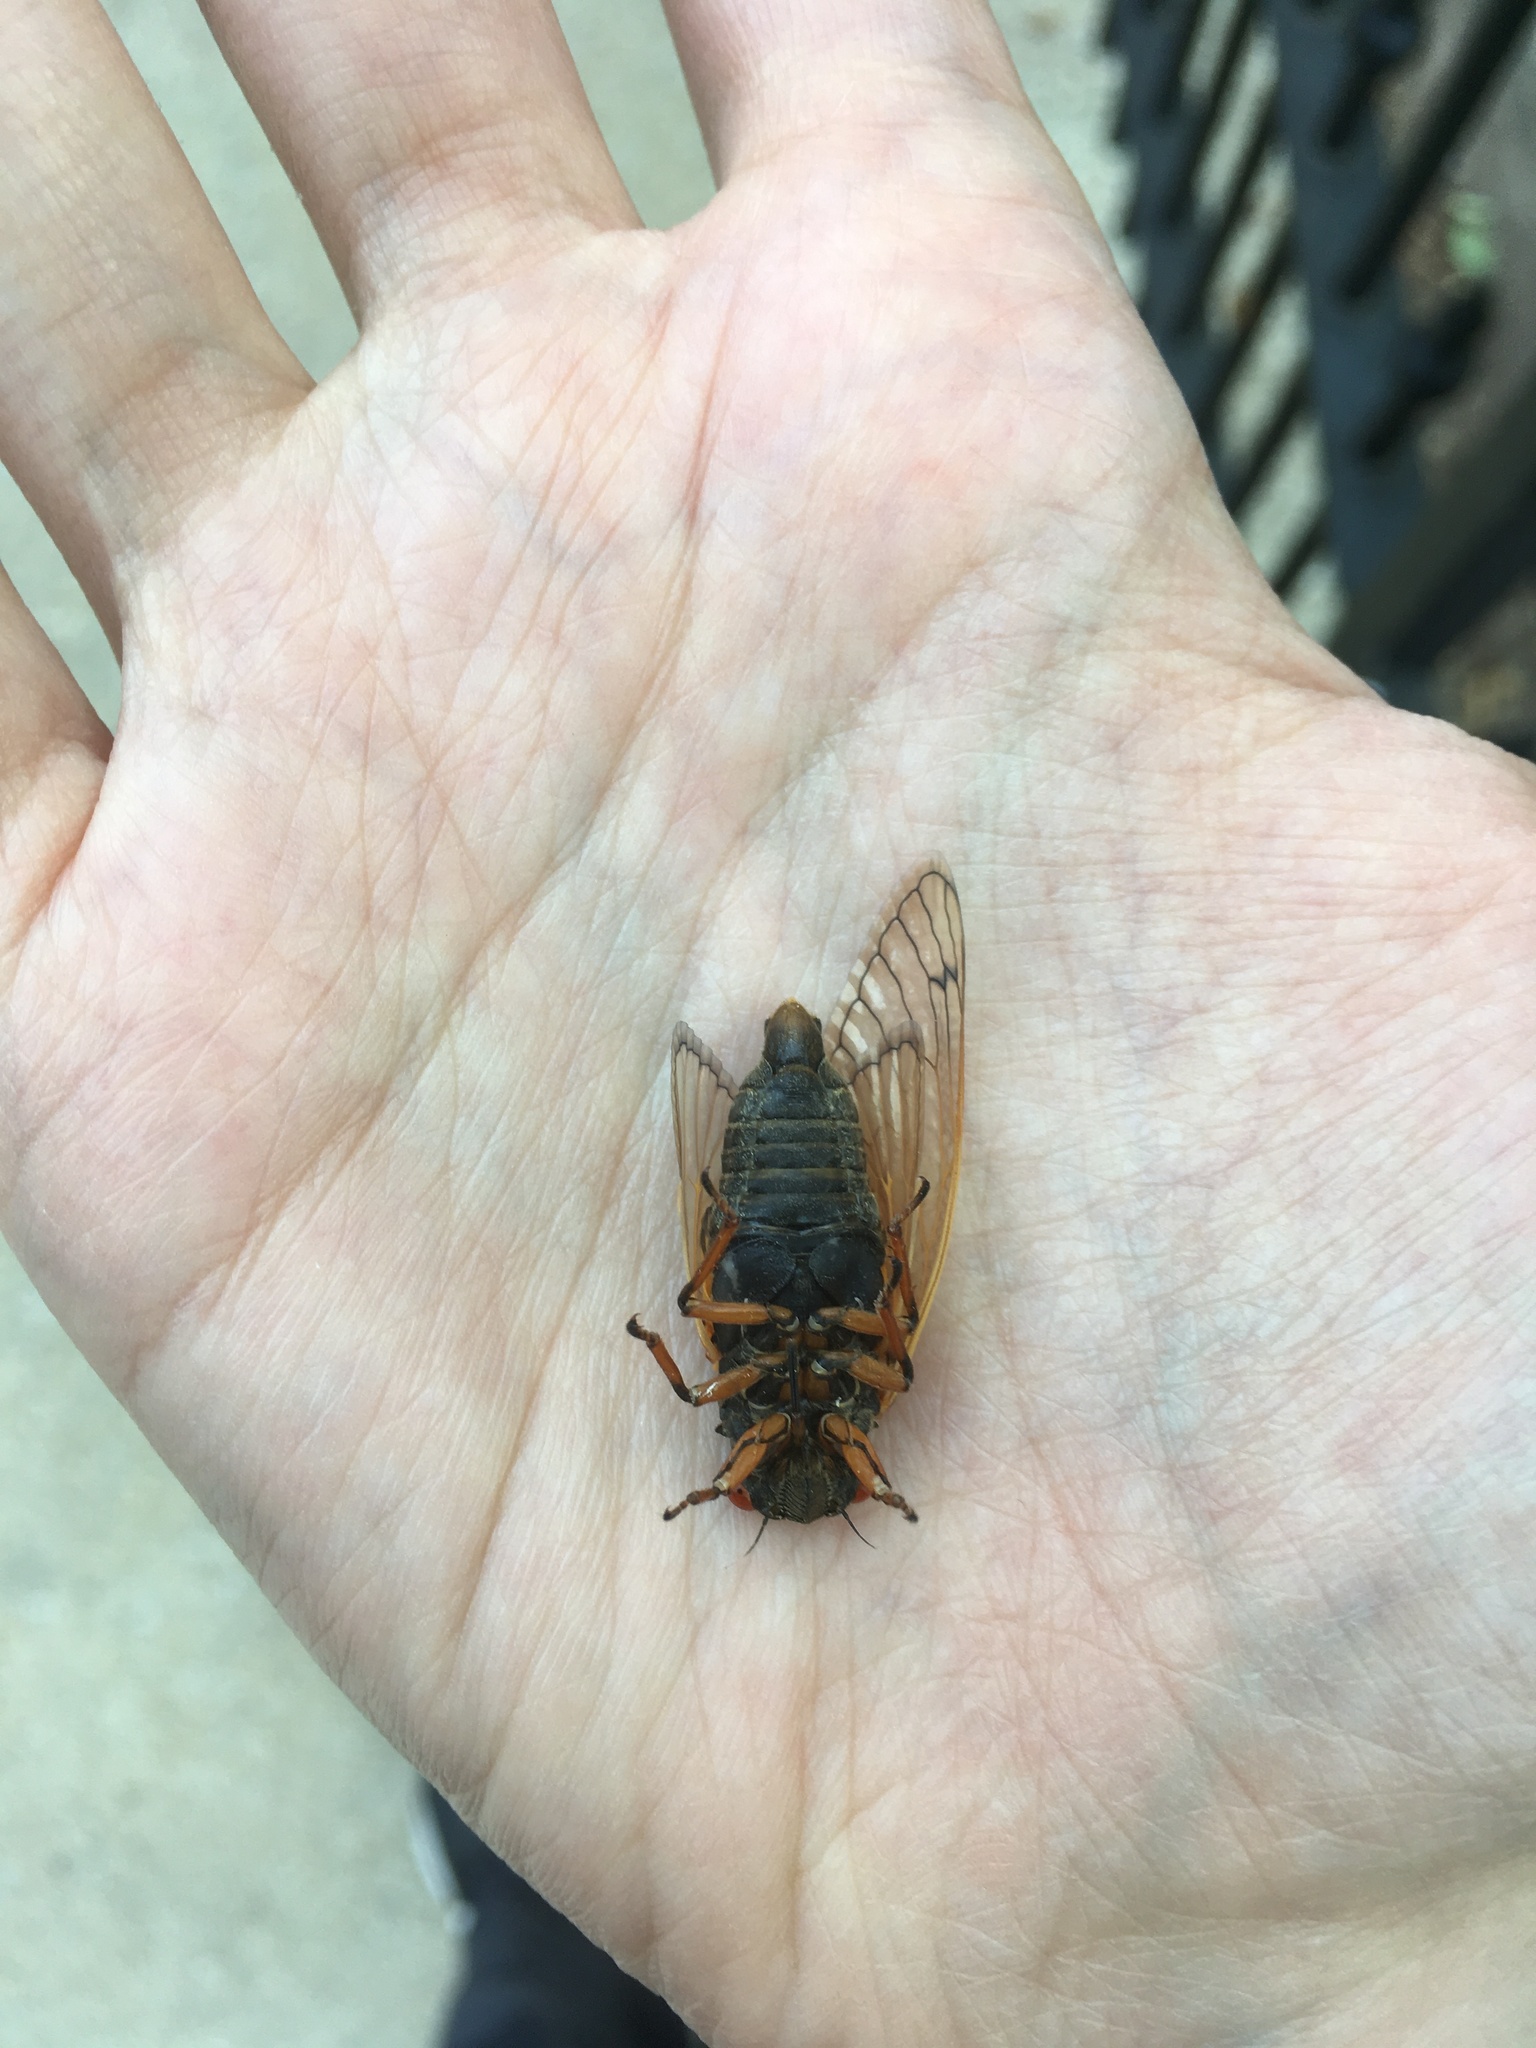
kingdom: Animalia
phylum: Arthropoda
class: Insecta
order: Hemiptera
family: Cicadidae
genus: Magicicada
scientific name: Magicicada cassini
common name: Cassin's 17-year cicada
